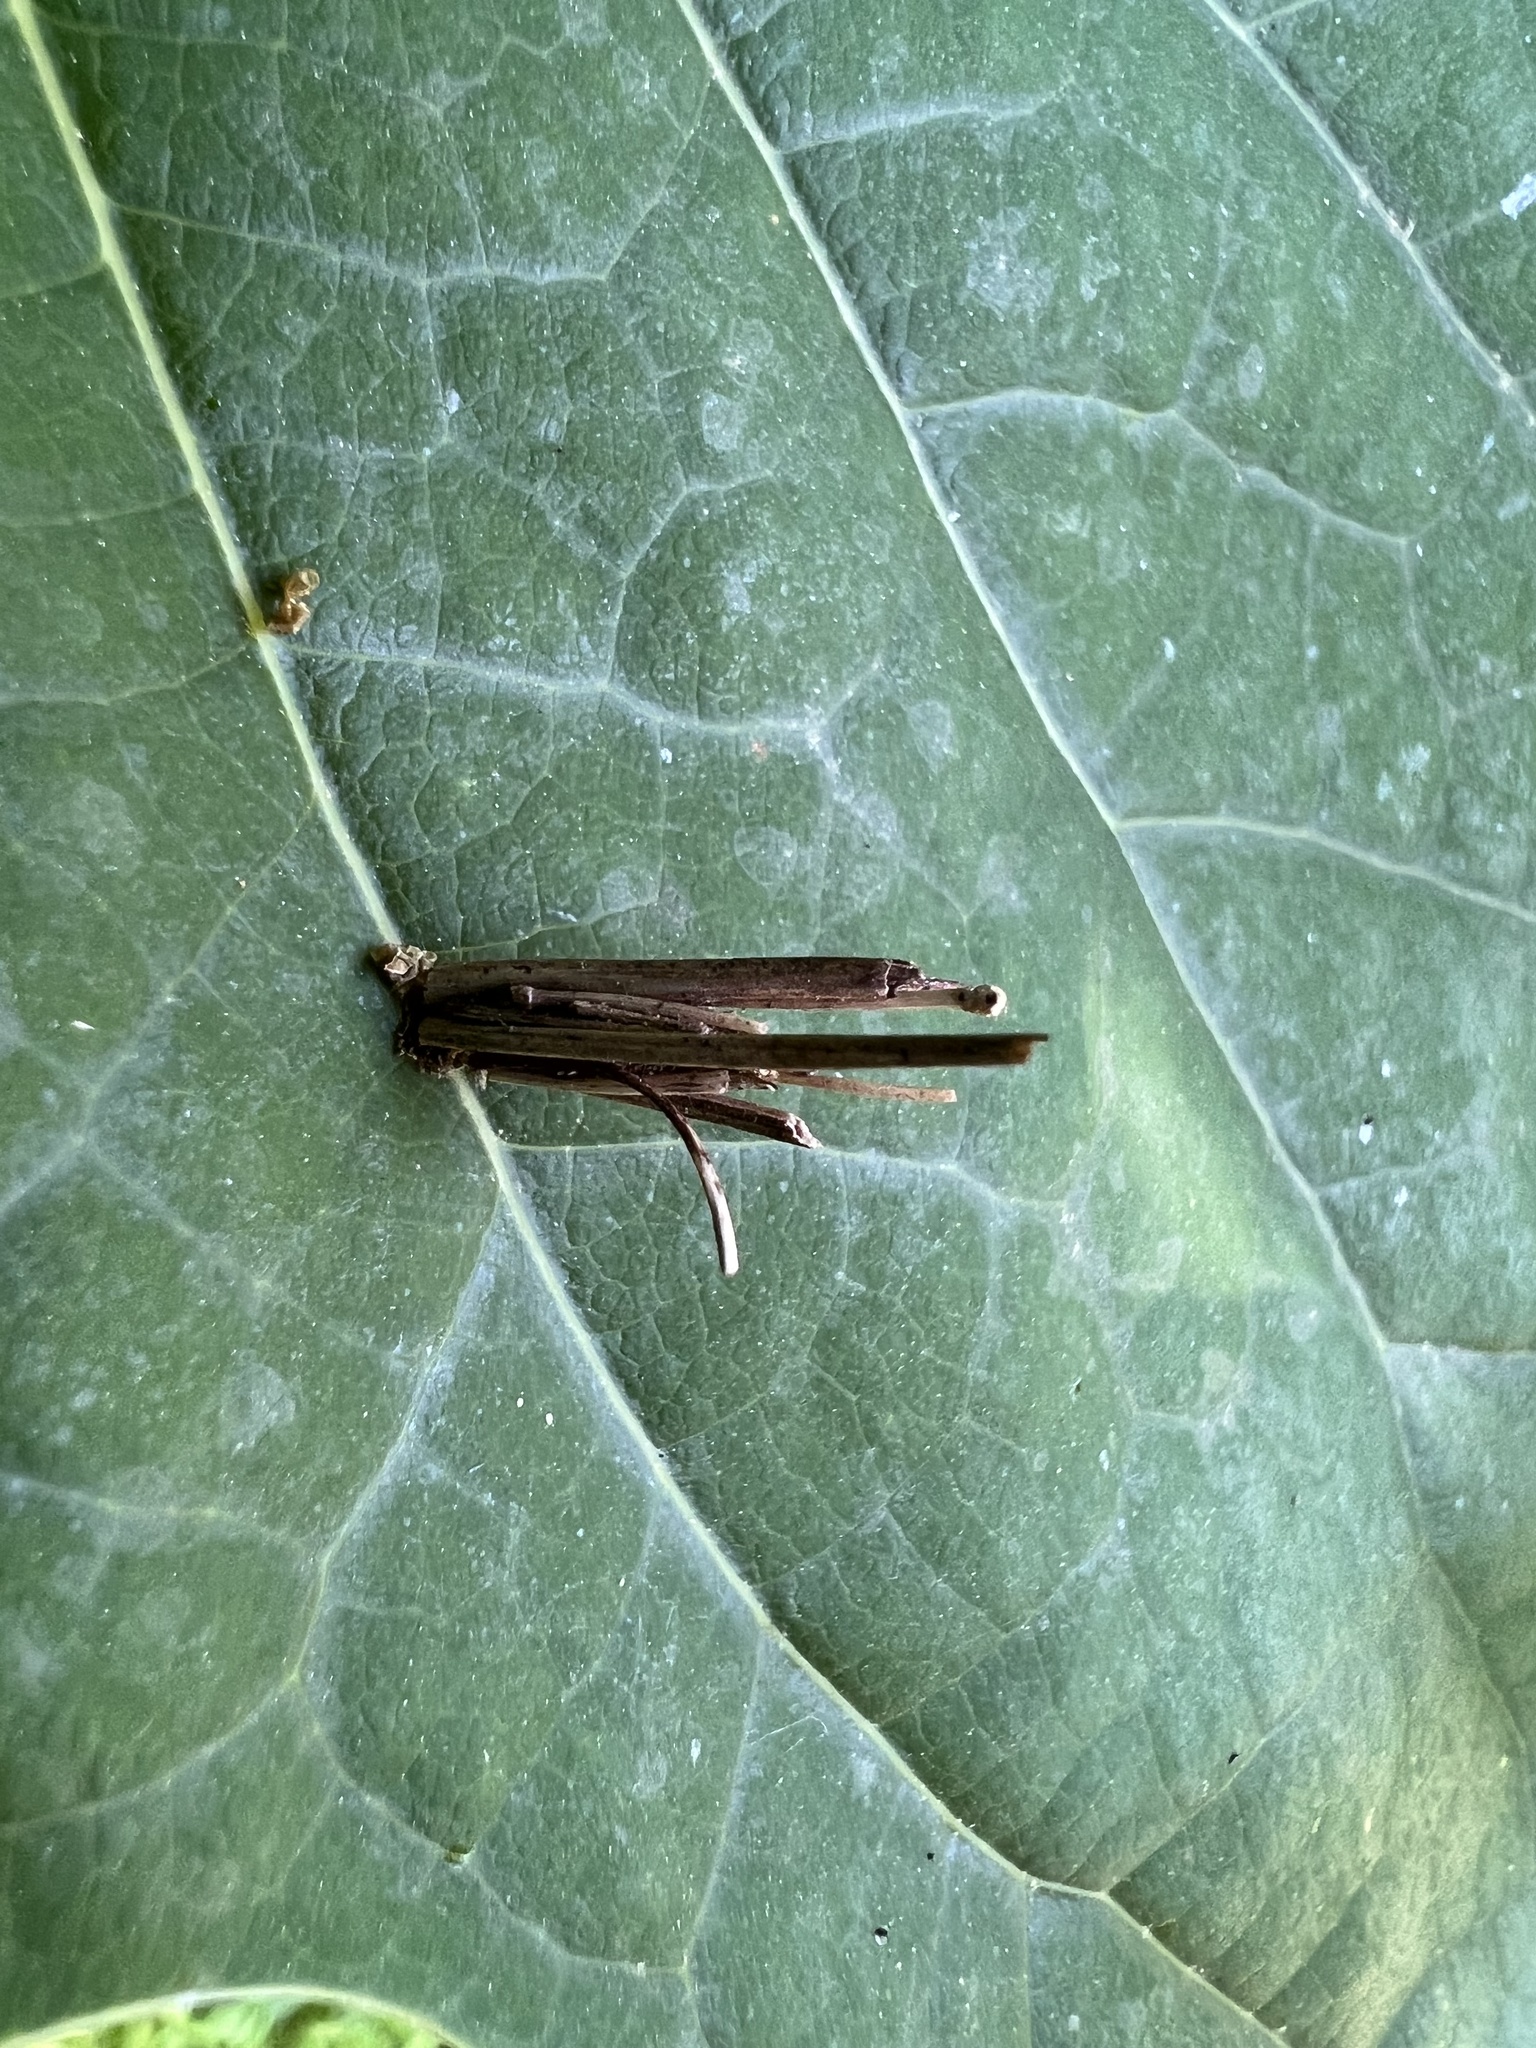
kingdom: Animalia
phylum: Arthropoda
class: Insecta
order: Lepidoptera
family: Psychidae
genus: Psyche
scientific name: Psyche casta
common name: Common sweep
